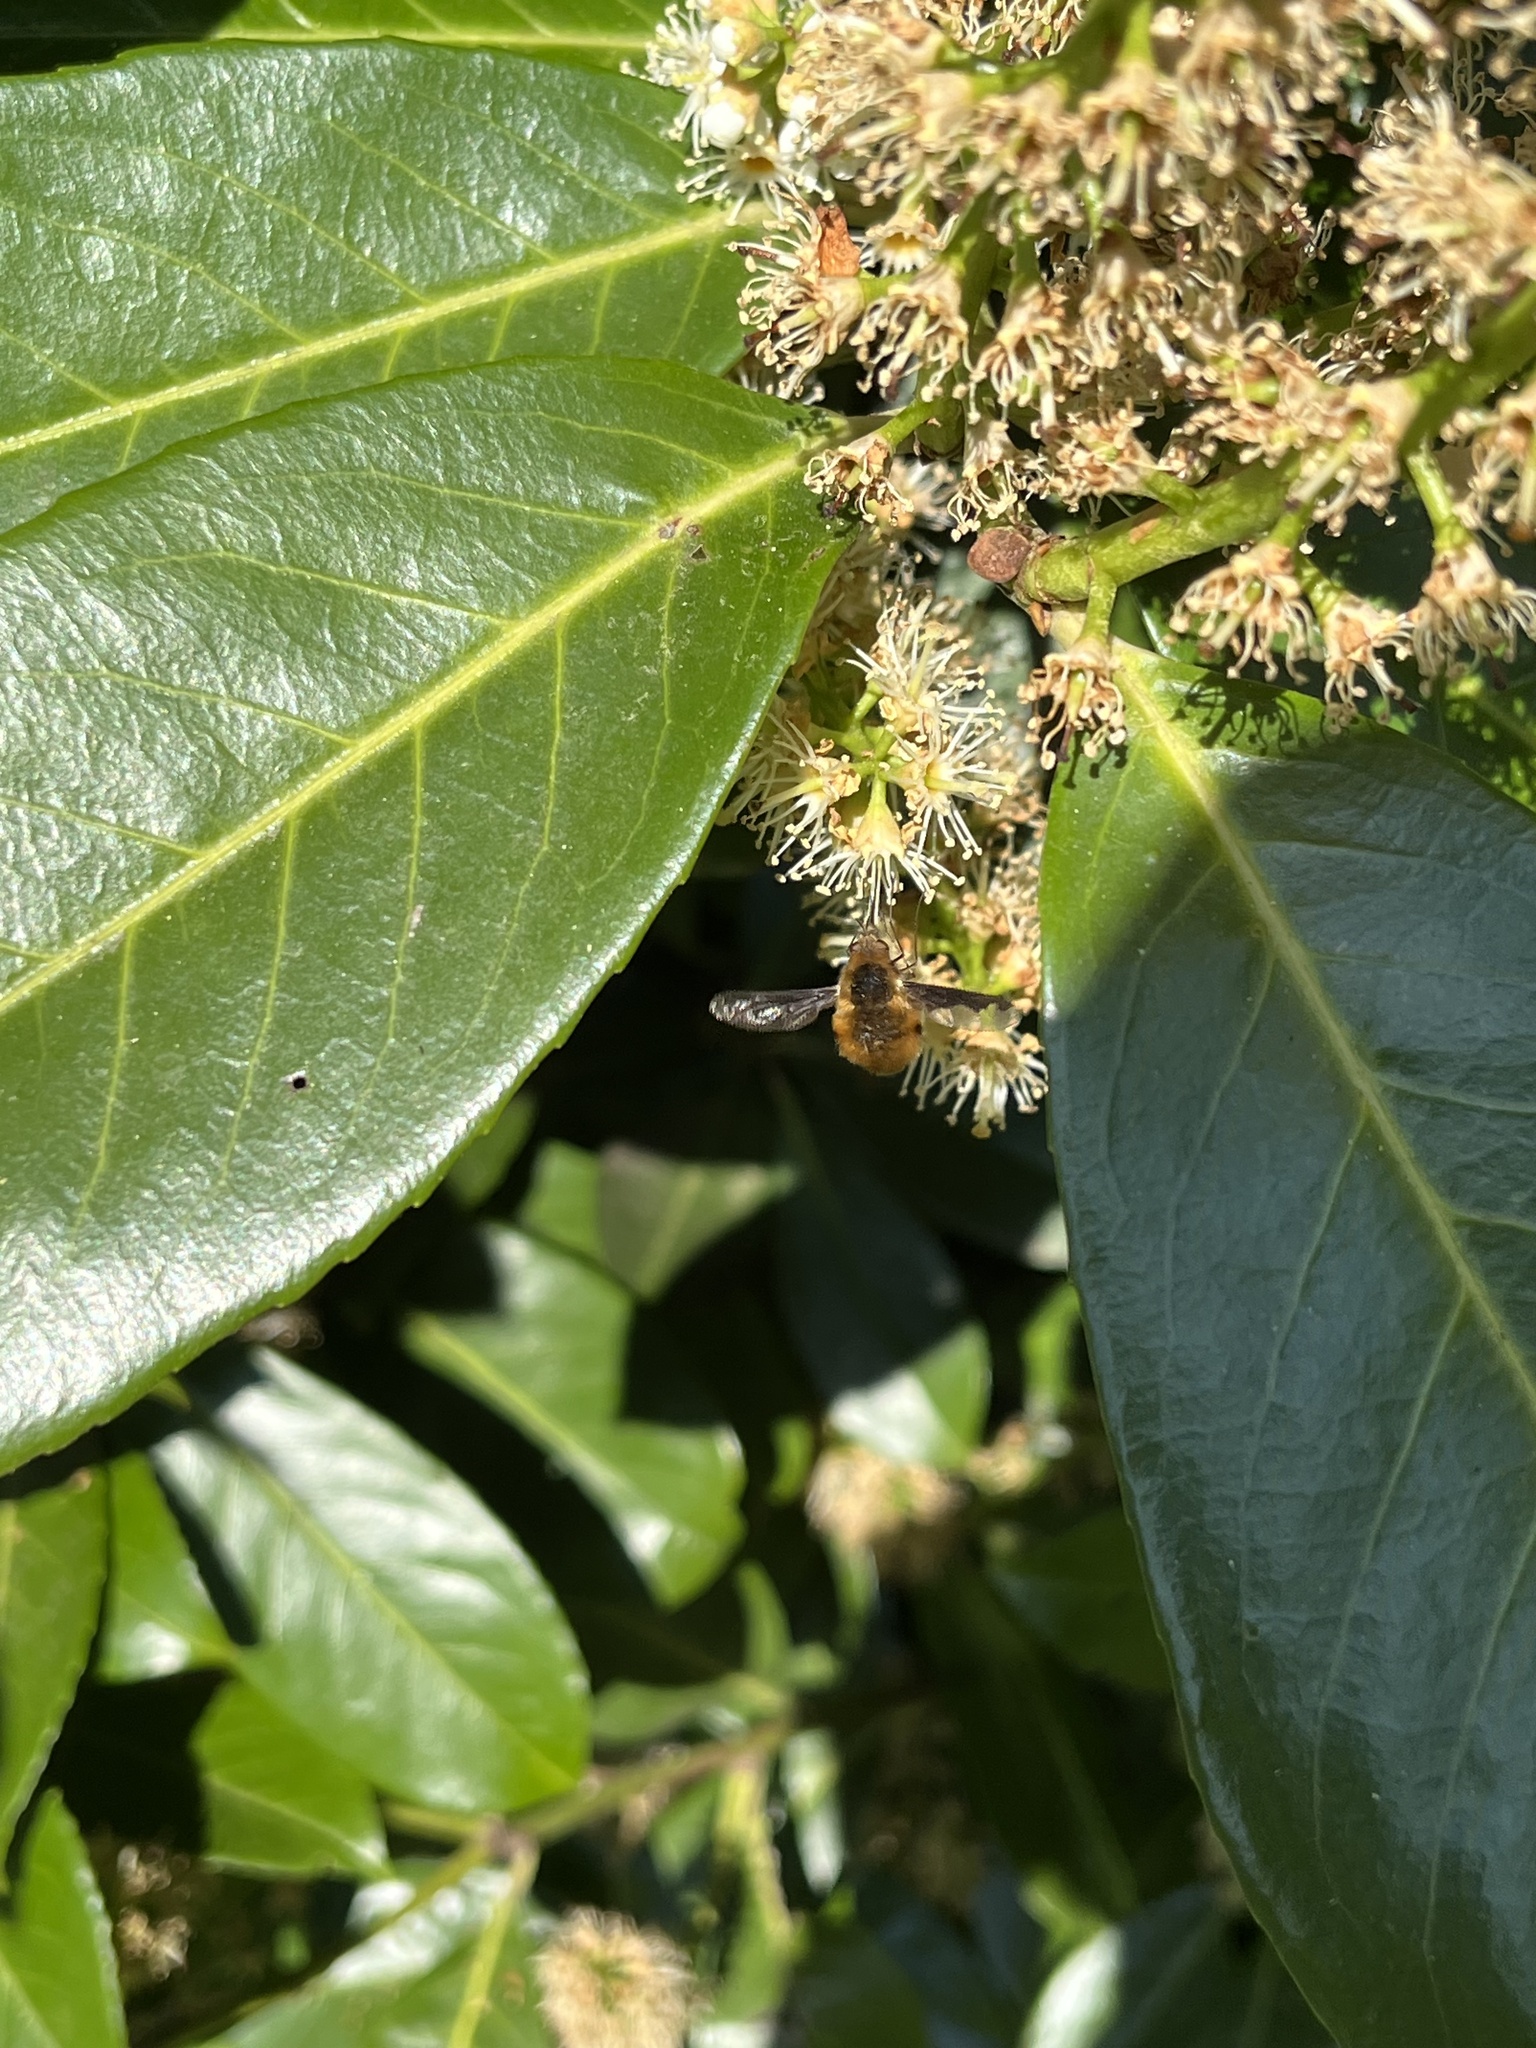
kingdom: Animalia
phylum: Arthropoda
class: Insecta
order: Diptera
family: Bombyliidae
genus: Bombylius
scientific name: Bombylius major
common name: Bee fly
